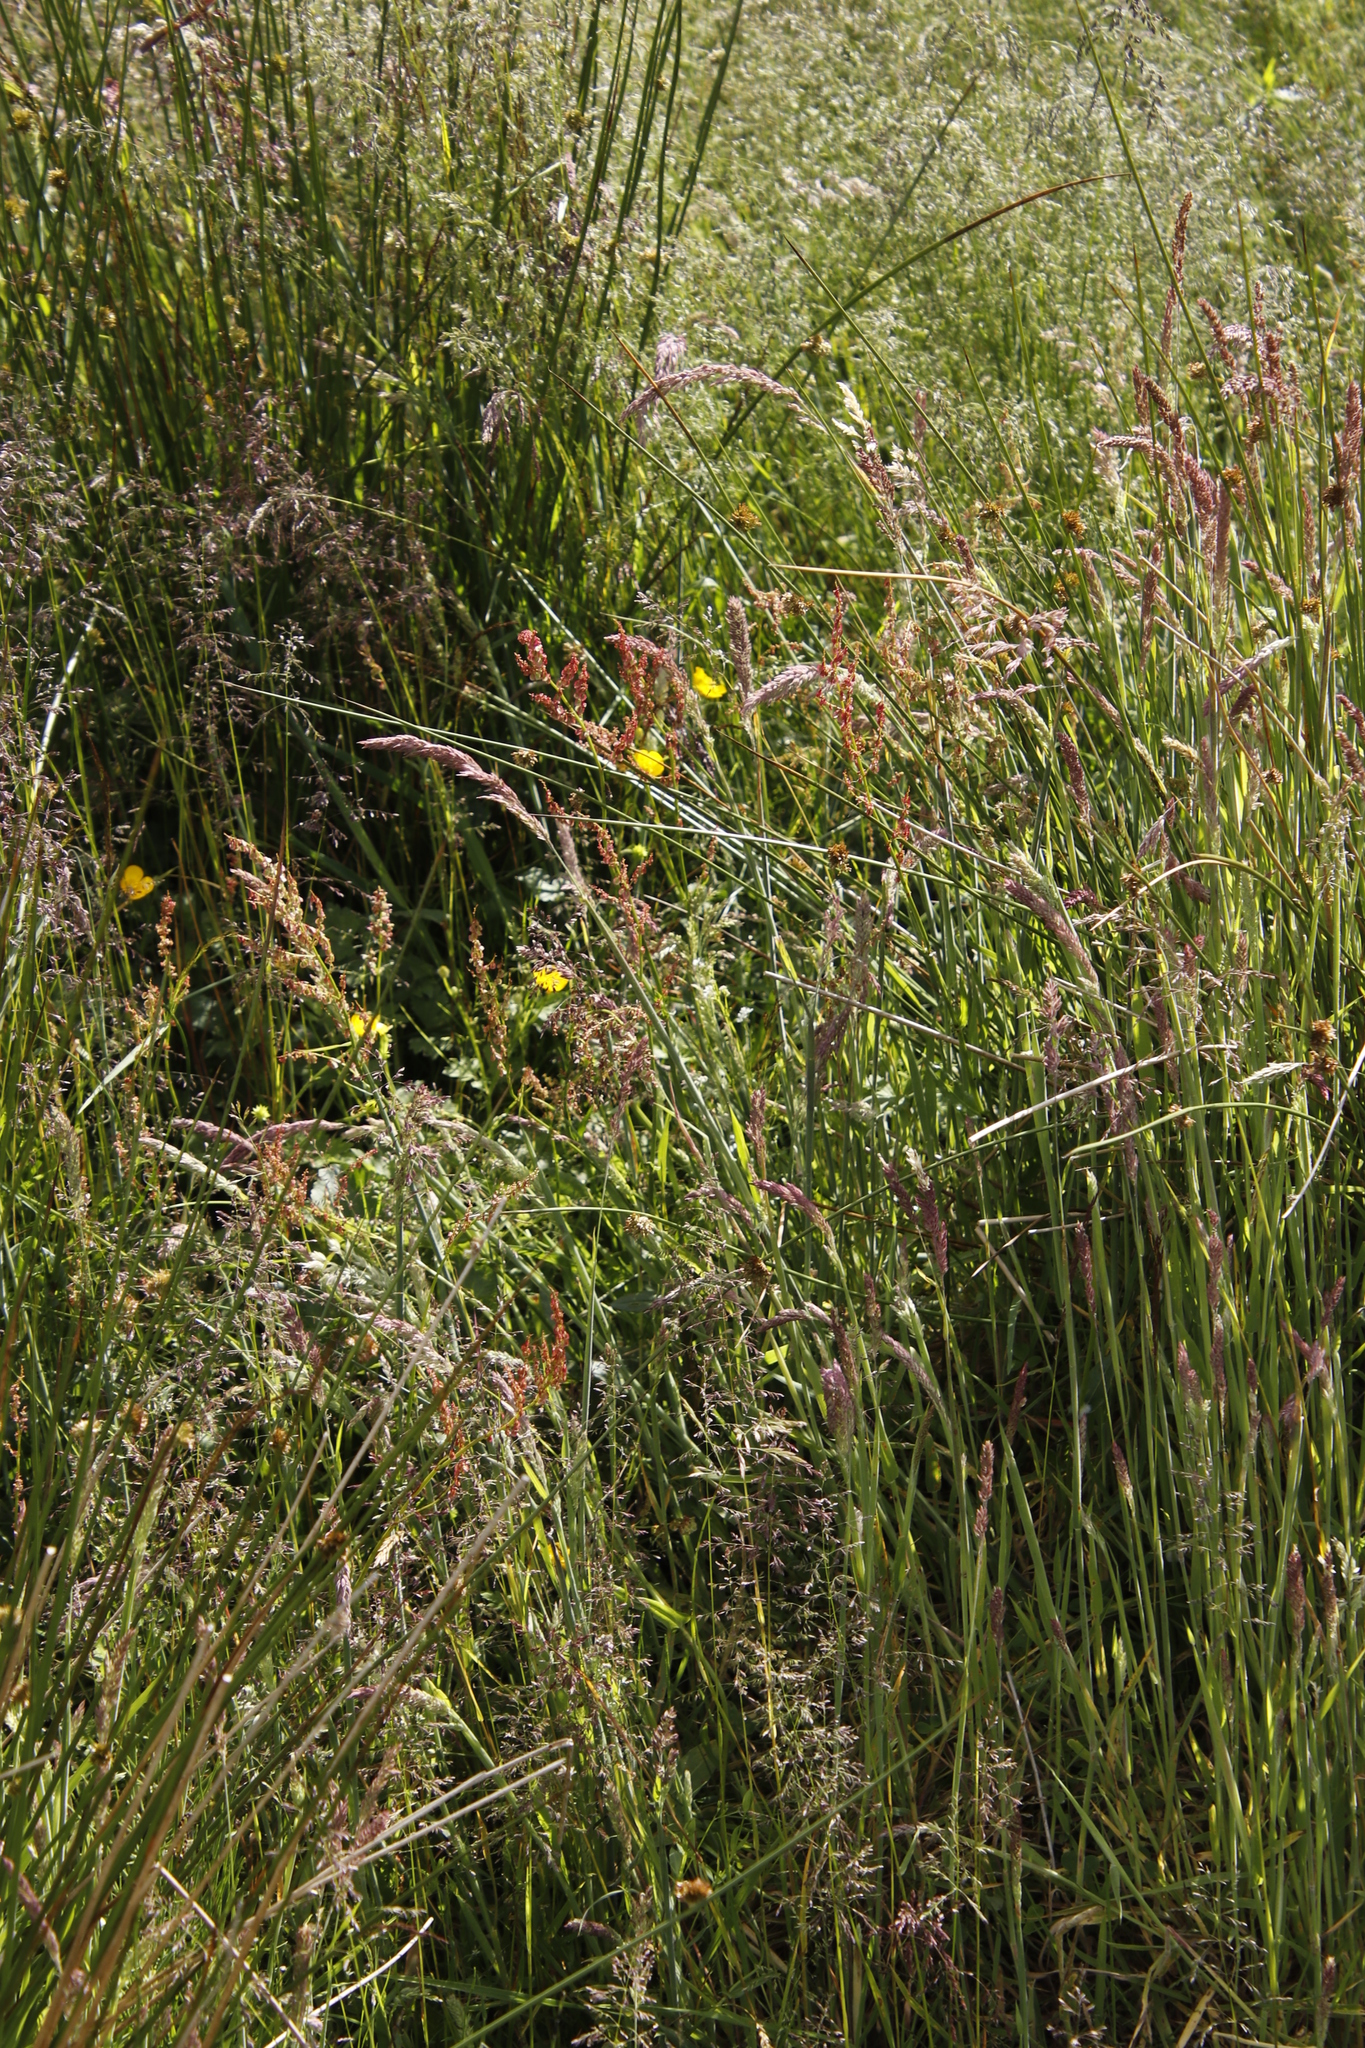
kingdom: Plantae
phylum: Tracheophyta
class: Liliopsida
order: Poales
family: Poaceae
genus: Holcus
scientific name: Holcus lanatus
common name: Yorkshire-fog
